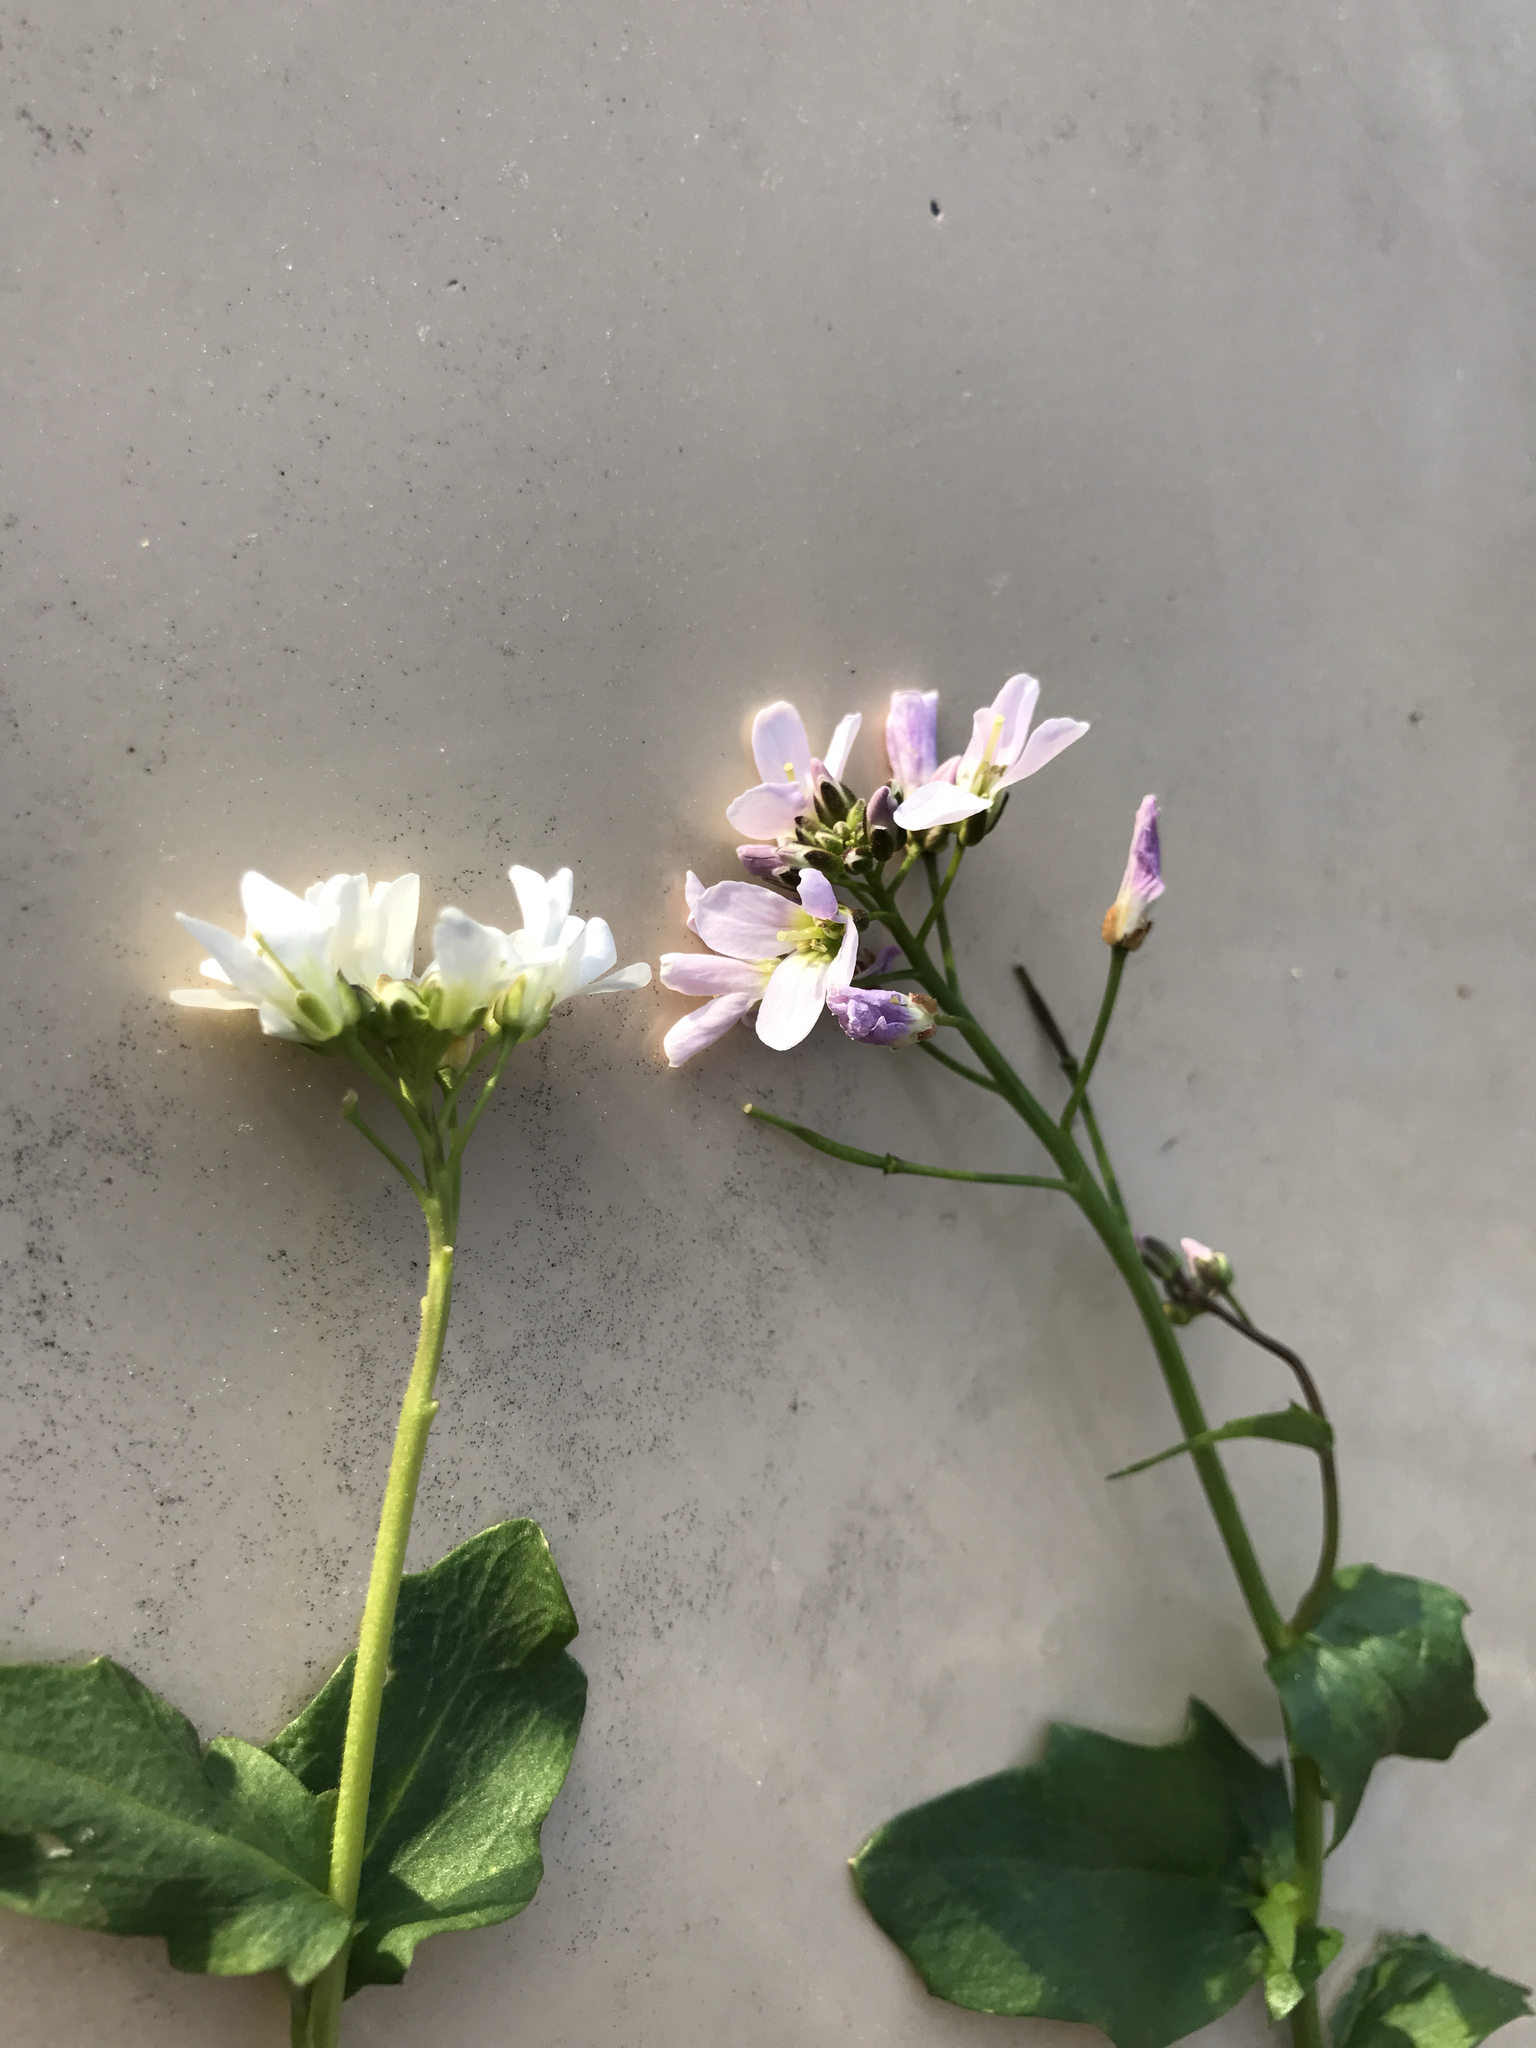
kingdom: Plantae
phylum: Tracheophyta
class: Magnoliopsida
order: Brassicales
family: Brassicaceae
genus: Cardamine
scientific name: Cardamine douglassii
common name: Purple cress
